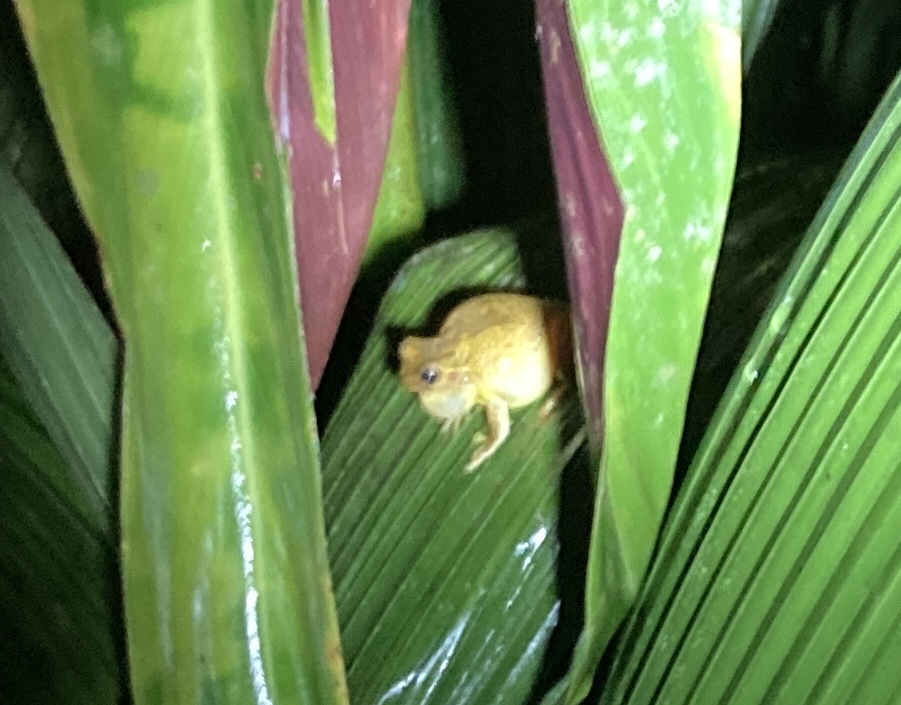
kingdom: Animalia
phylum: Chordata
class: Amphibia
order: Anura
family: Hylidae
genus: Tlalocohyla
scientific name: Tlalocohyla loquax
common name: Loquacious treefrog
